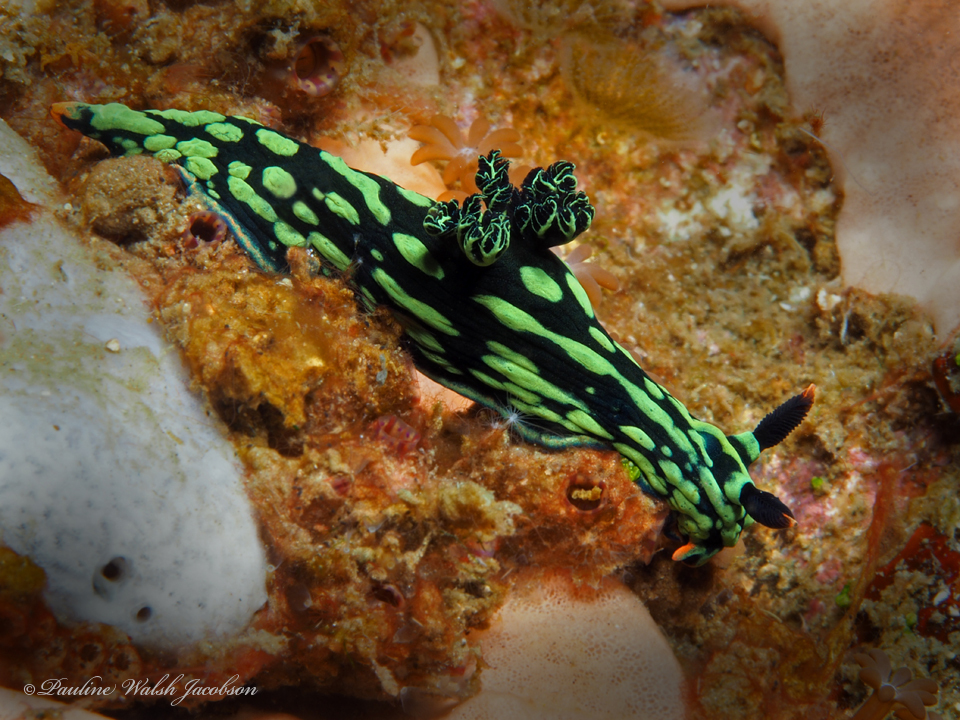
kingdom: Animalia
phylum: Mollusca
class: Gastropoda
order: Nudibranchia
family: Polyceridae
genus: Nembrotha
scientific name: Nembrotha kubaryana
